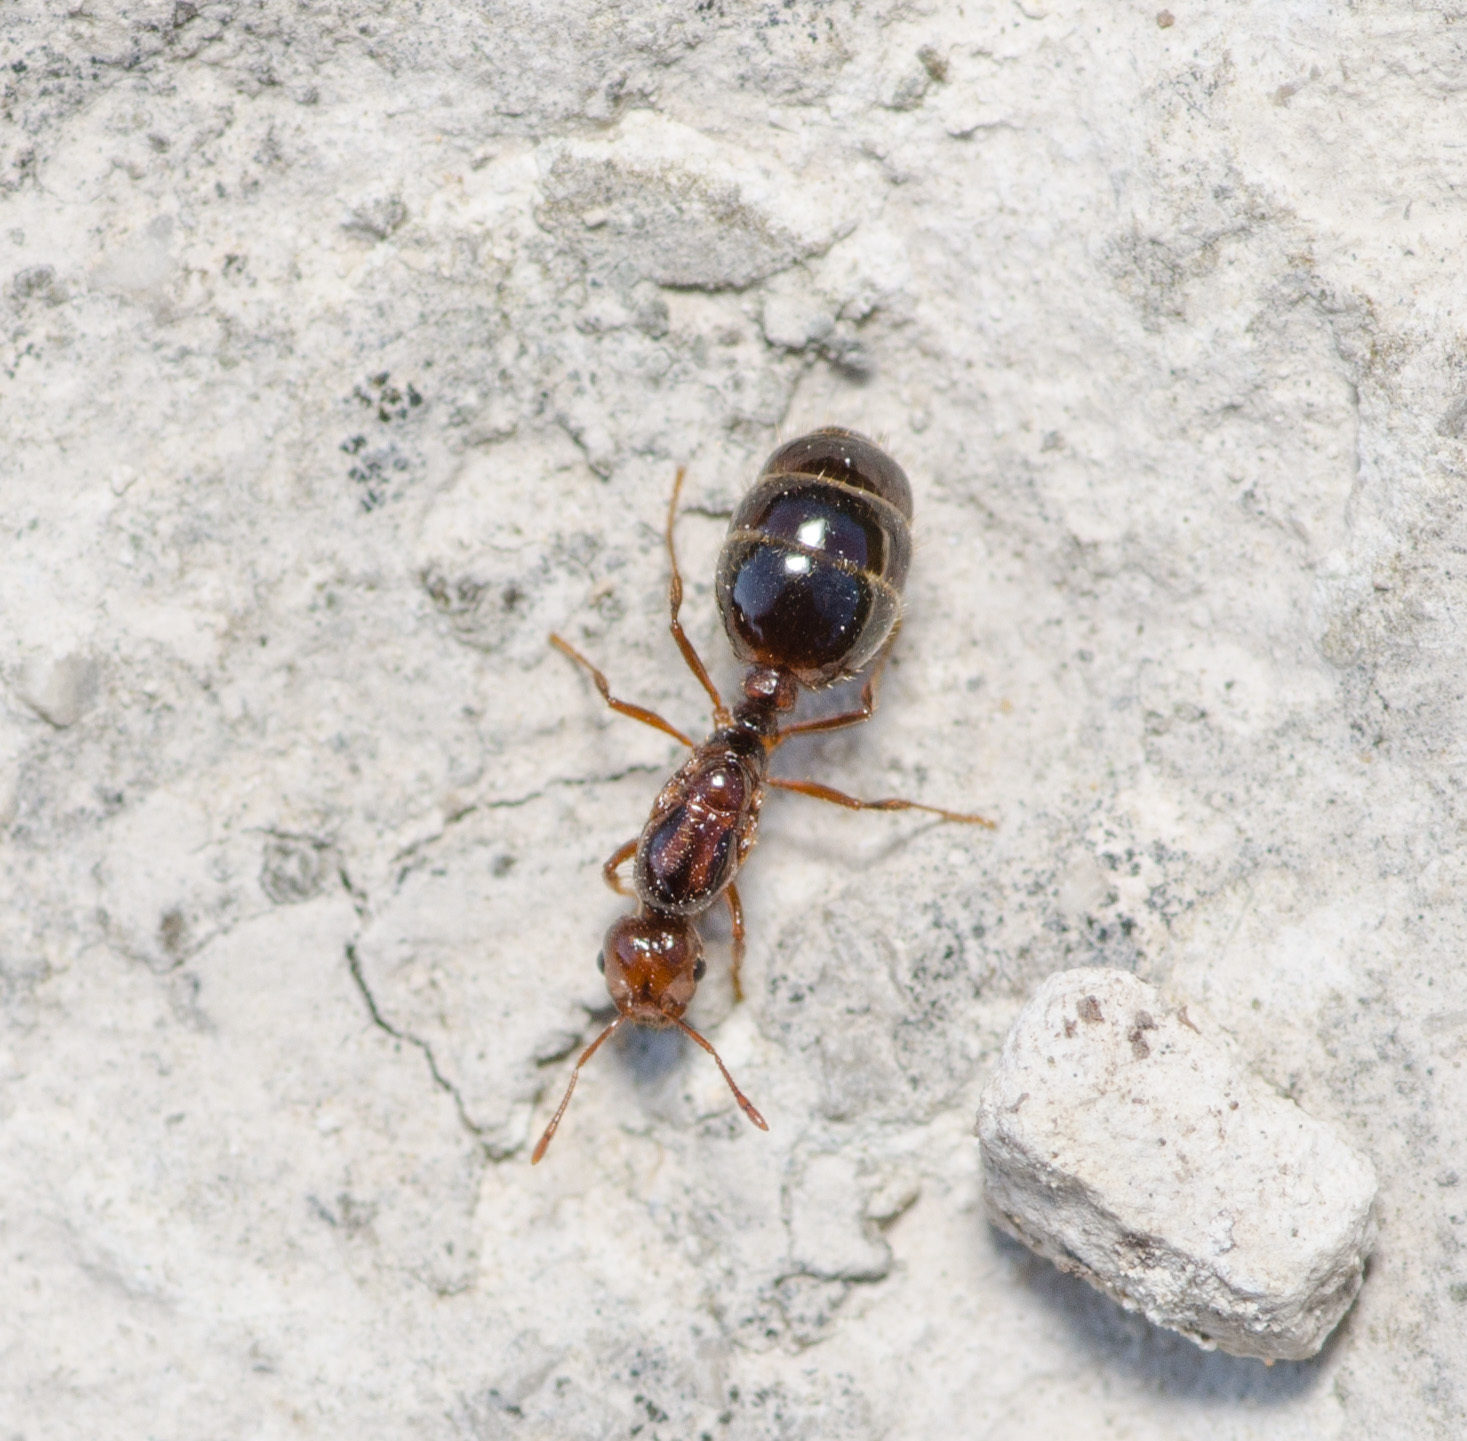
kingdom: Animalia
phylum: Arthropoda
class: Insecta
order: Hymenoptera
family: Formicidae
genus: Solenopsis
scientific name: Solenopsis invicta
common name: Red imported fire ant
